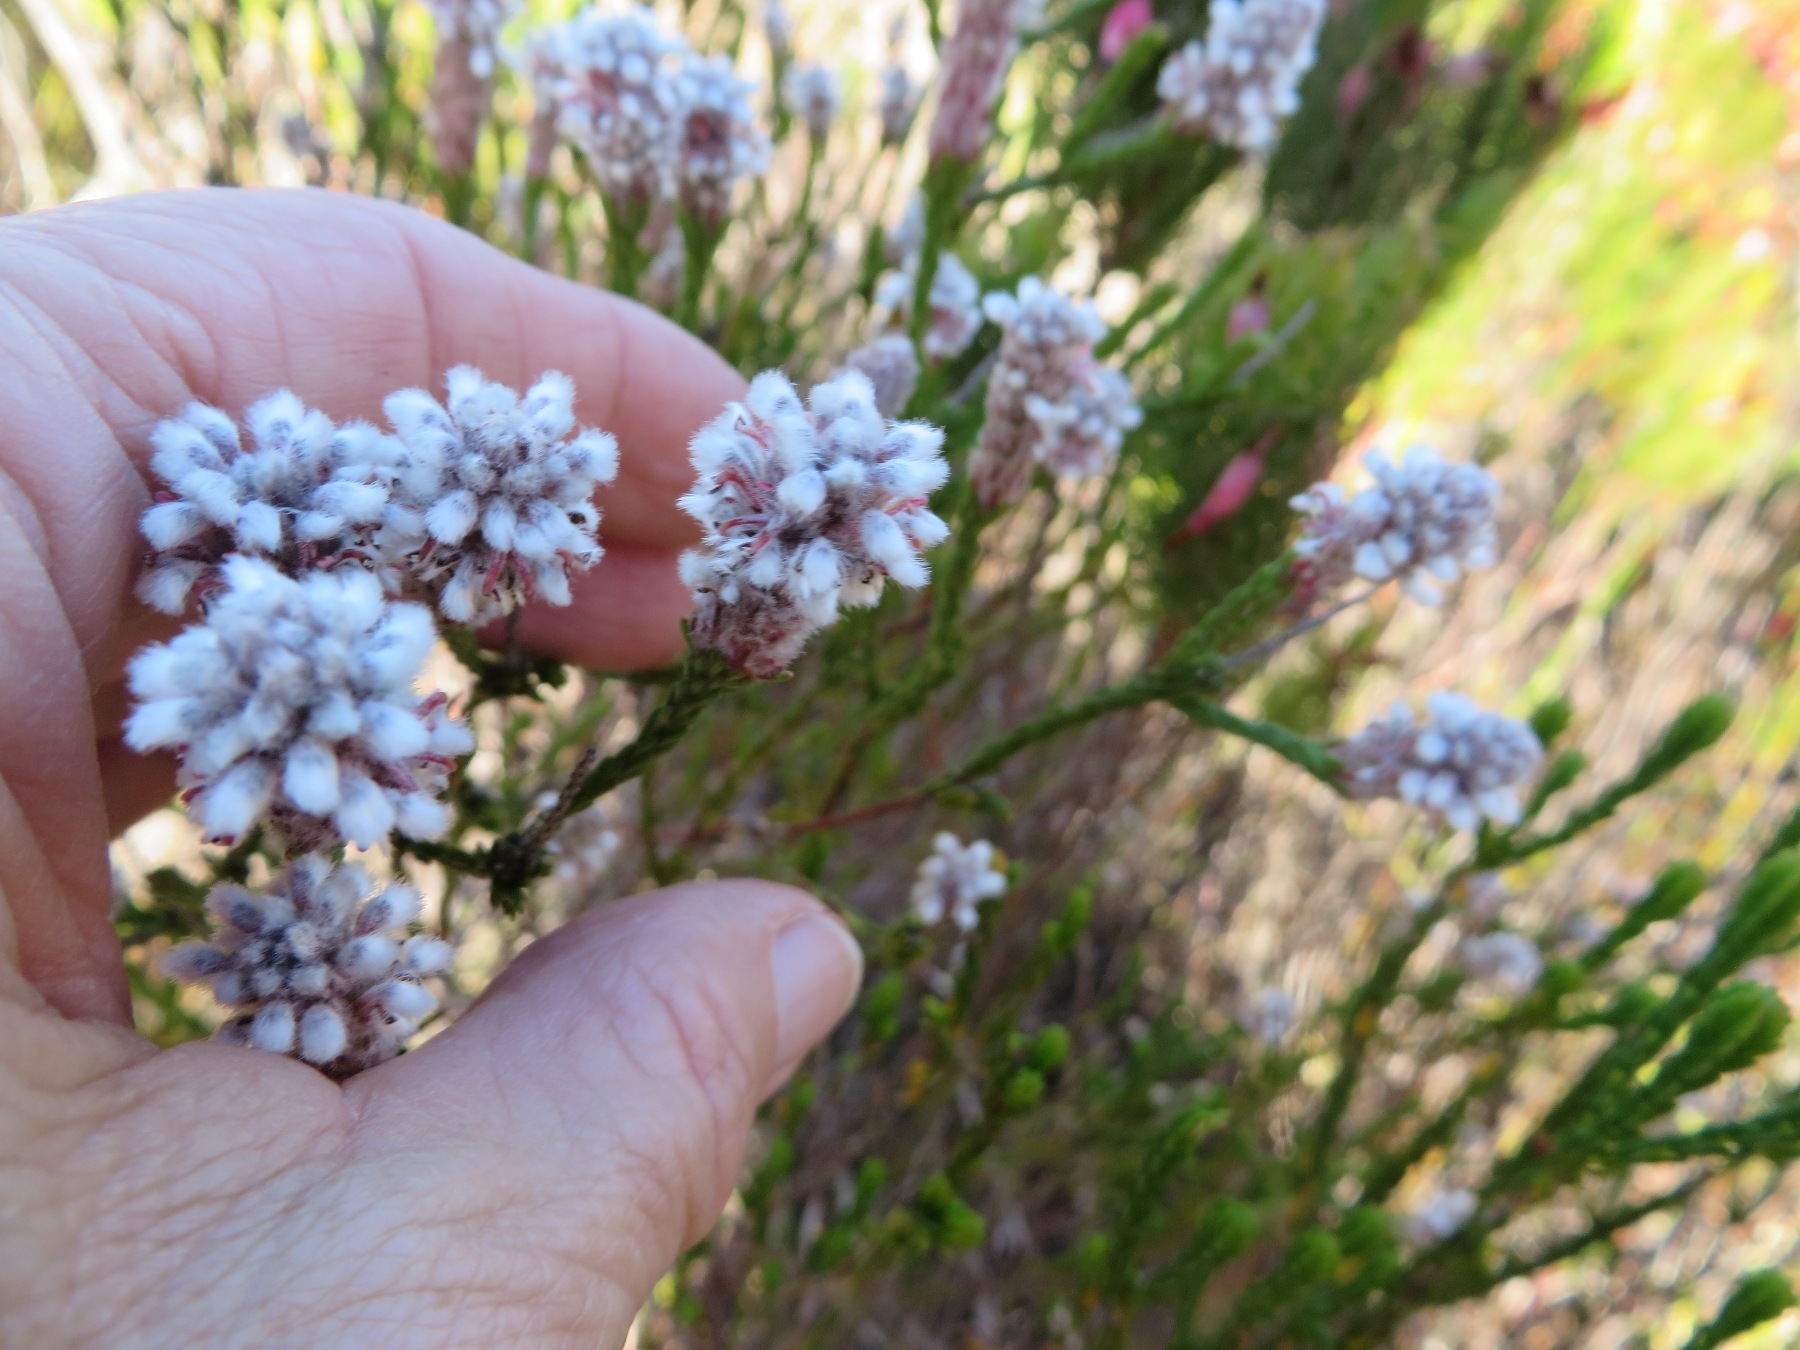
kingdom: Plantae
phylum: Tracheophyta
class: Magnoliopsida
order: Proteales
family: Proteaceae
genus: Spatalla
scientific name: Spatalla ericoides
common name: Erica-leaf spoon
